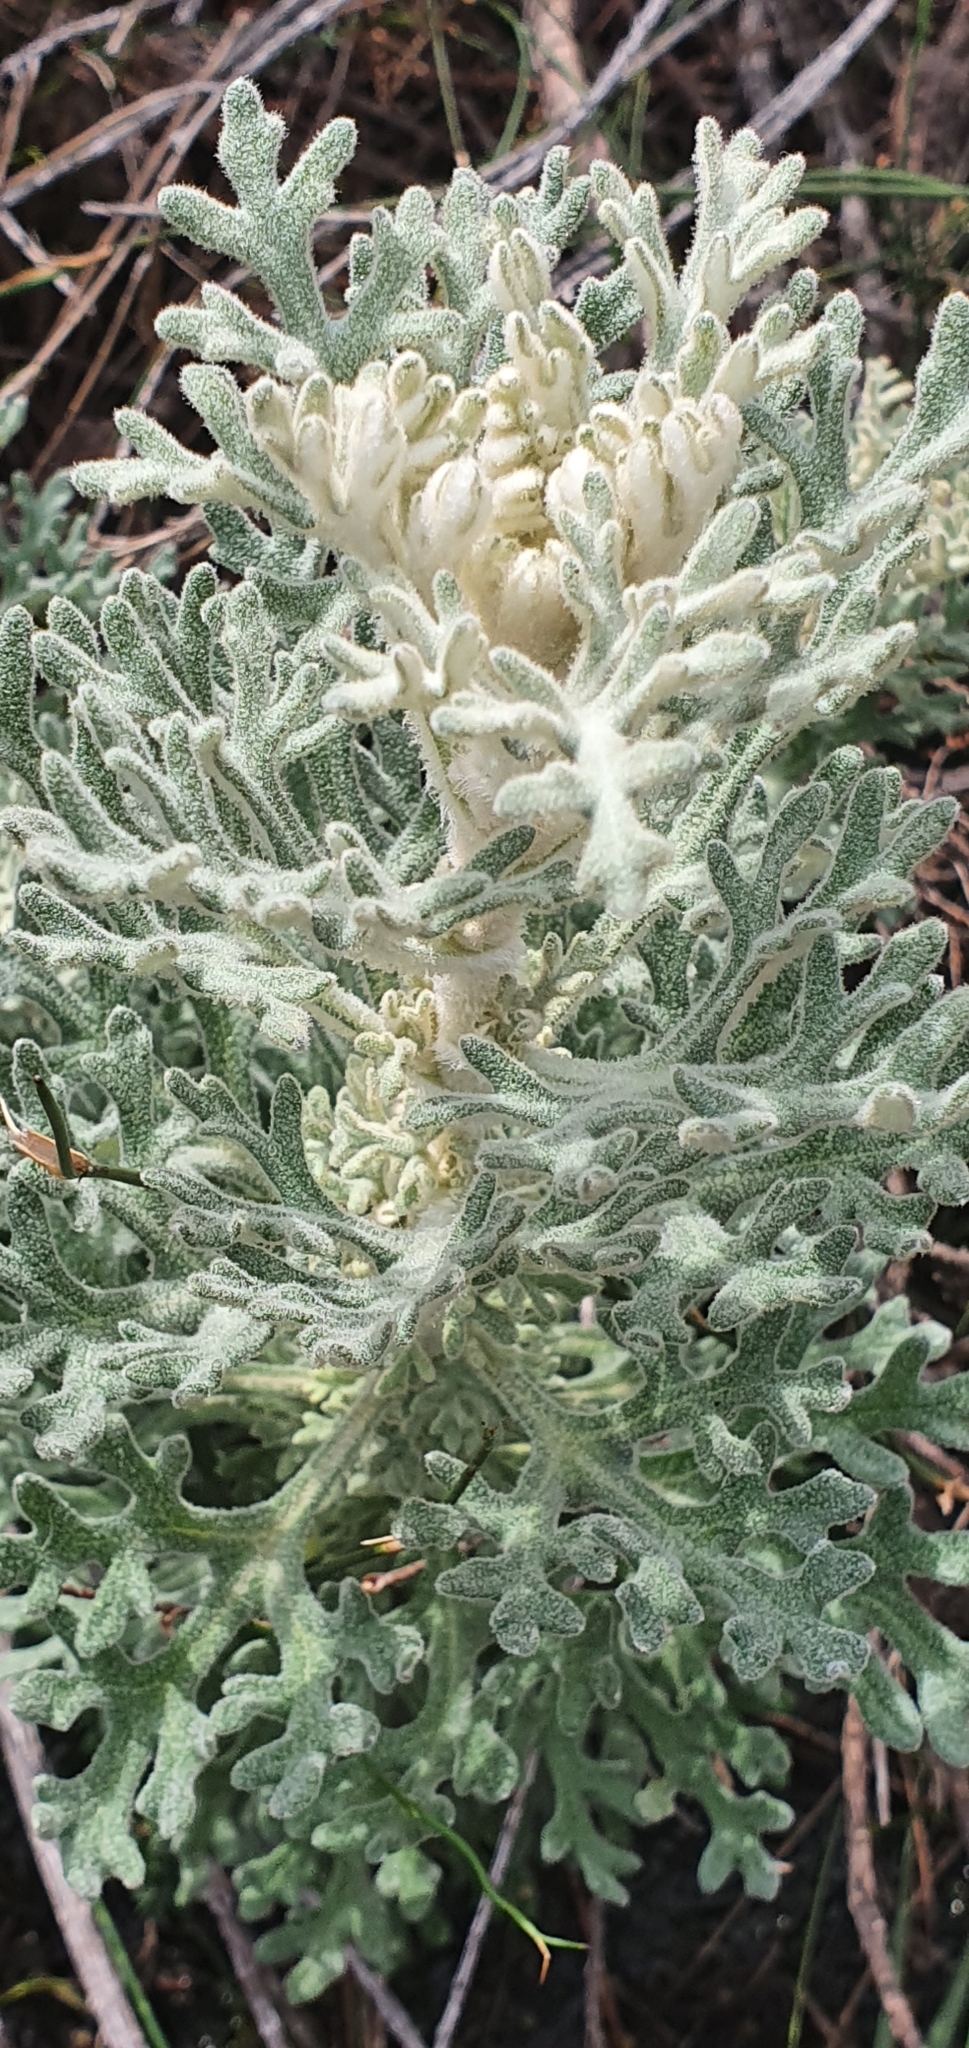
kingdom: Plantae
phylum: Tracheophyta
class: Magnoliopsida
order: Apiales
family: Apiaceae
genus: Actinotus
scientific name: Actinotus helianthi
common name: Flannel-flower
